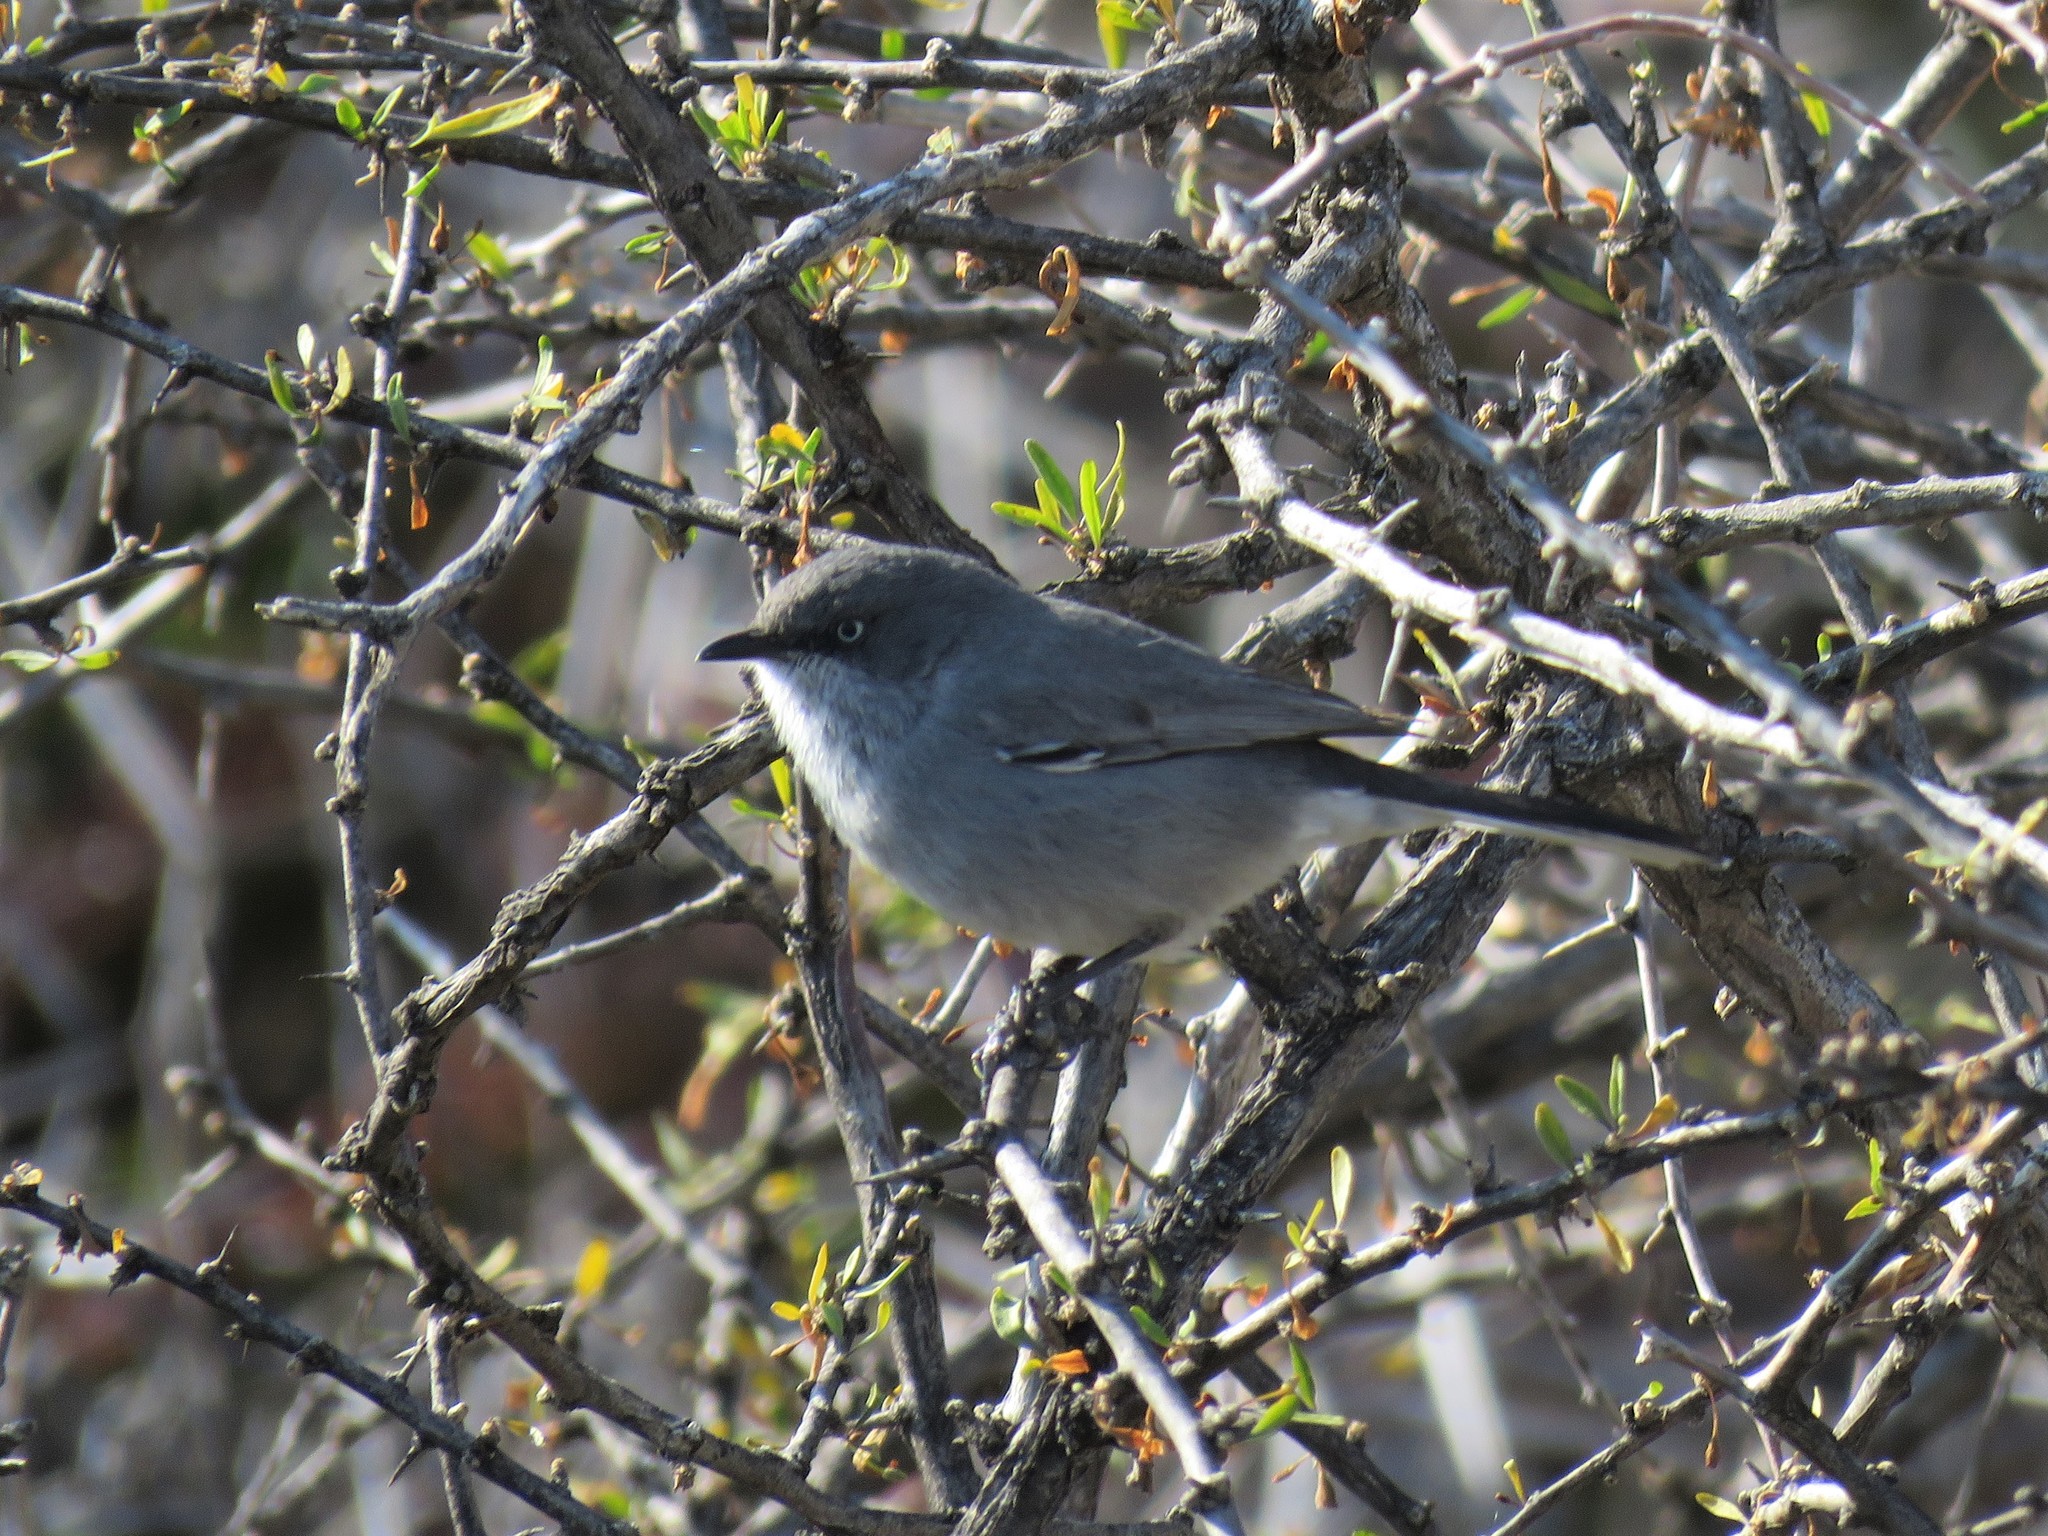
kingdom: Animalia
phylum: Chordata
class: Aves
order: Passeriformes
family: Sylviidae
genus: Sylvia
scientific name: Sylvia layardi
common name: Layard's warbler
